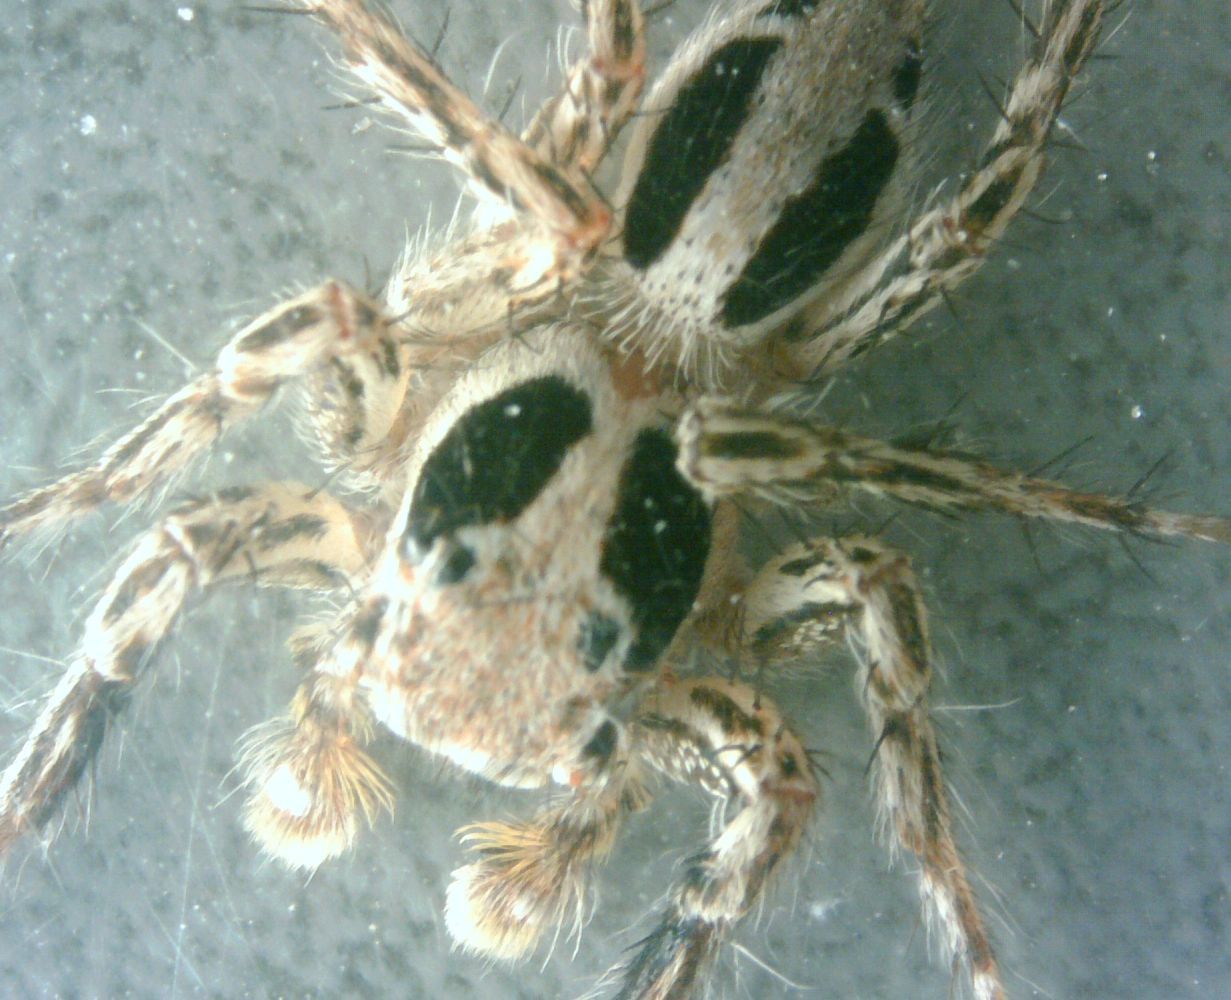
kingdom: Animalia
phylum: Arthropoda
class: Arachnida
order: Araneae
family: Salticidae
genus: Plexippus
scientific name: Plexippus petersi
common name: Jumping spider
